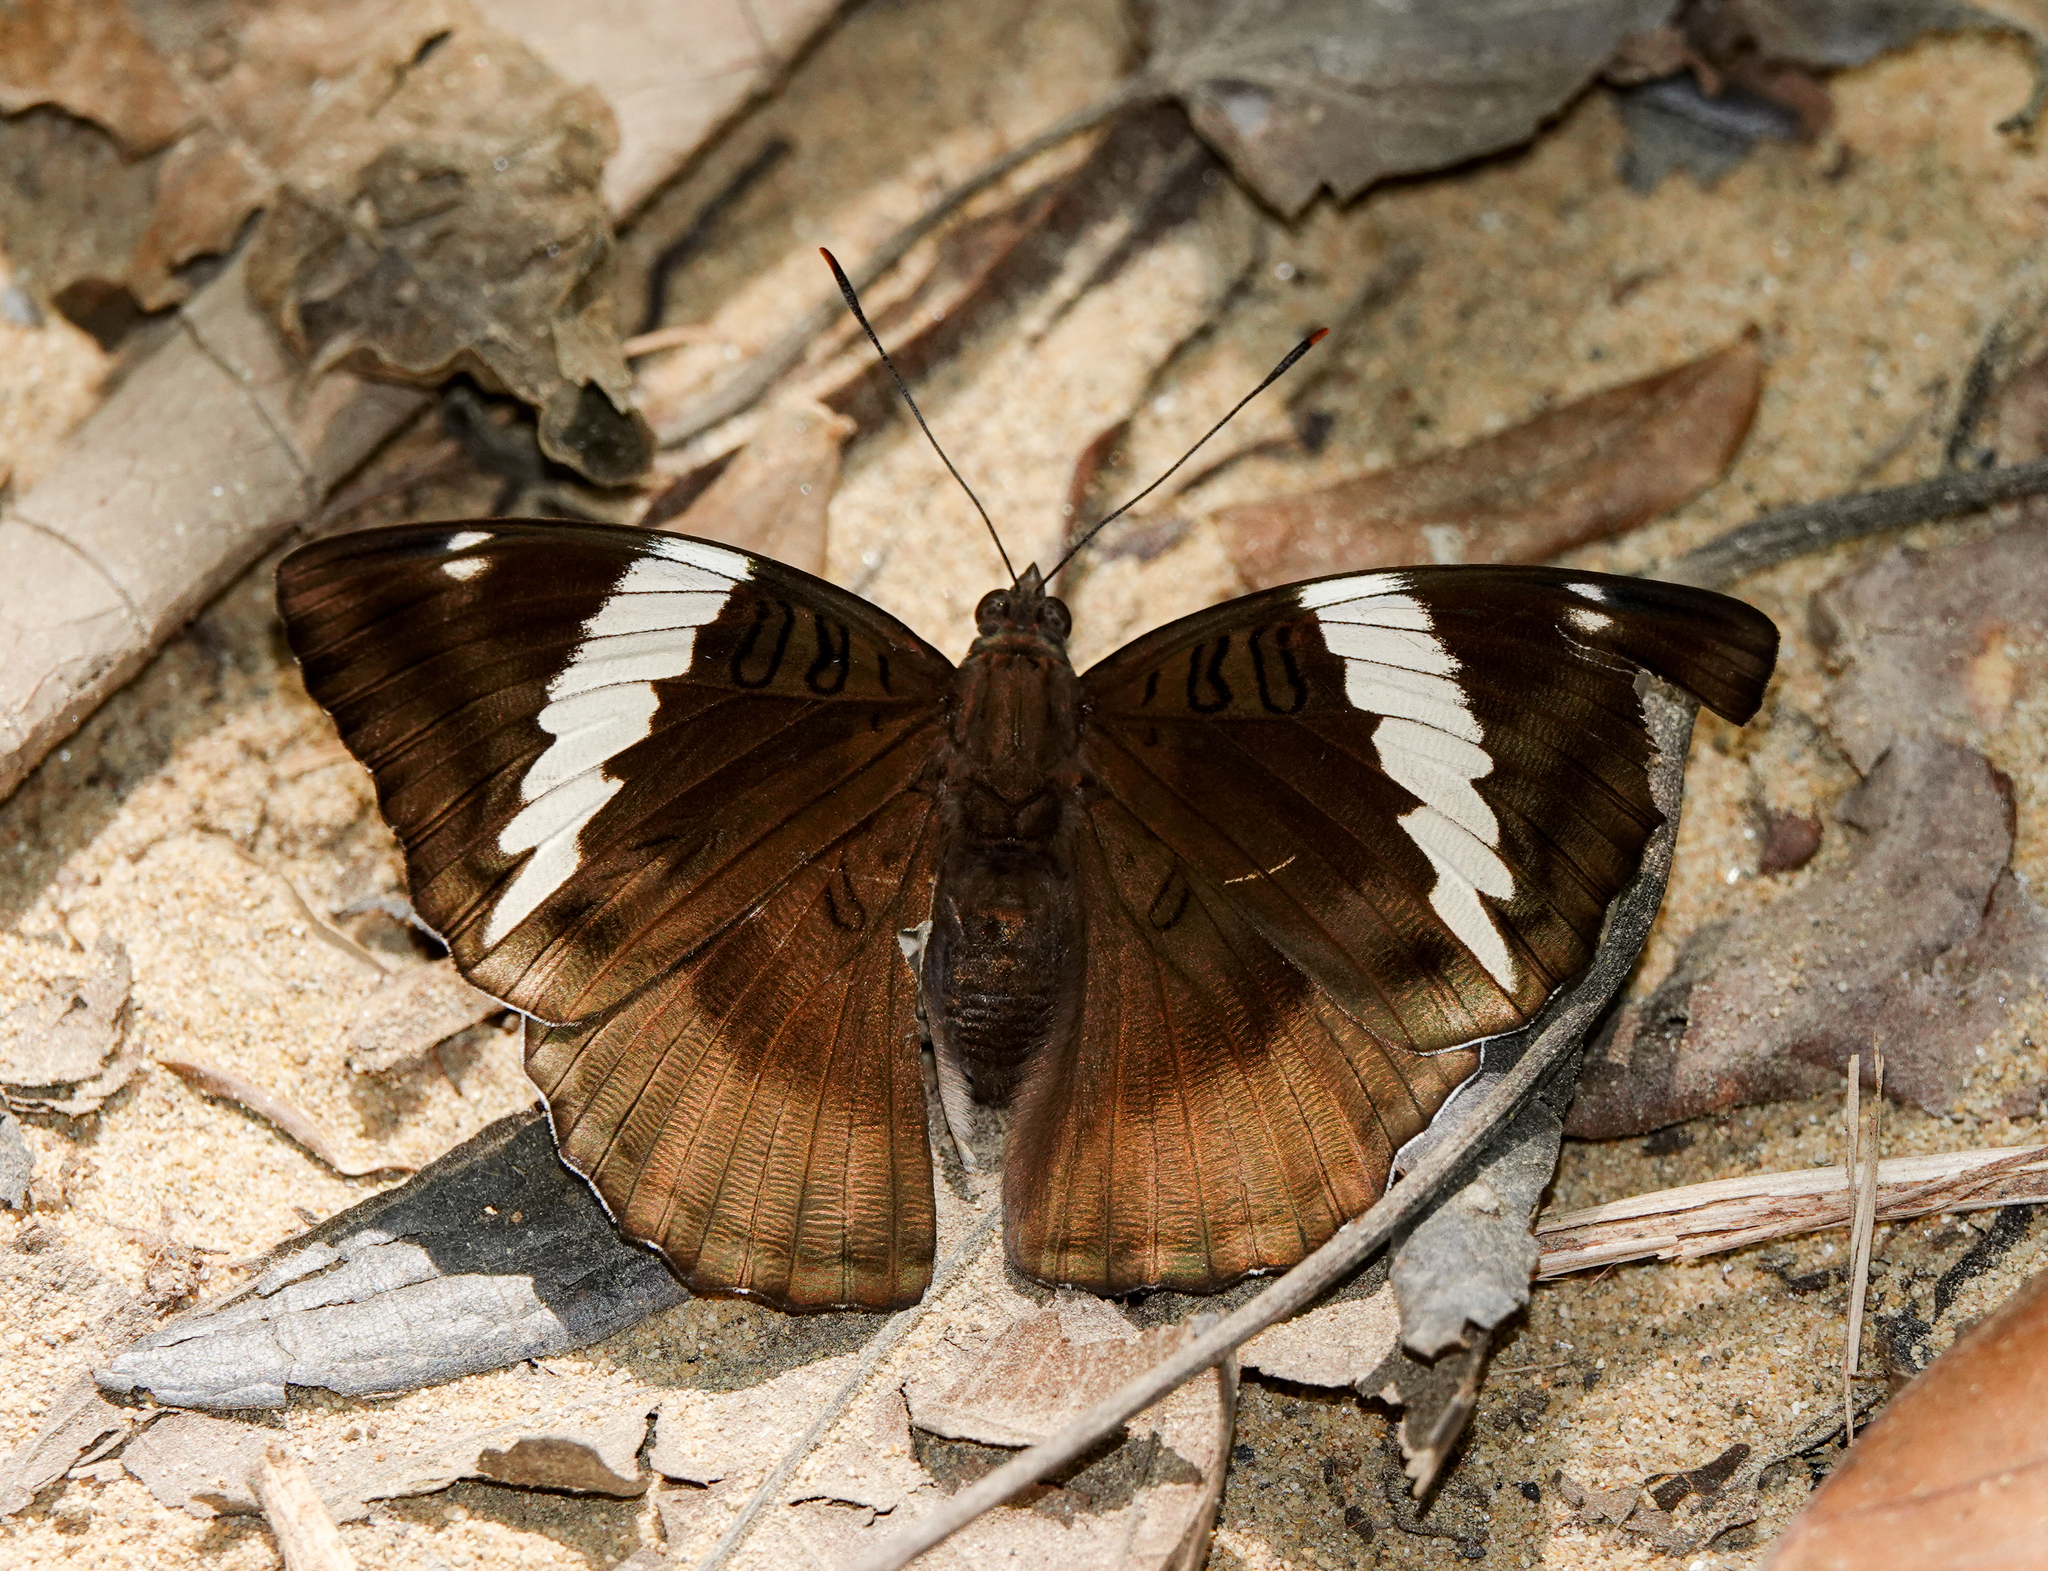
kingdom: Animalia
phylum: Arthropoda
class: Insecta
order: Lepidoptera
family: Nymphalidae
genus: Euthalia
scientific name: Euthalia phemius
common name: White-edged blue baron
